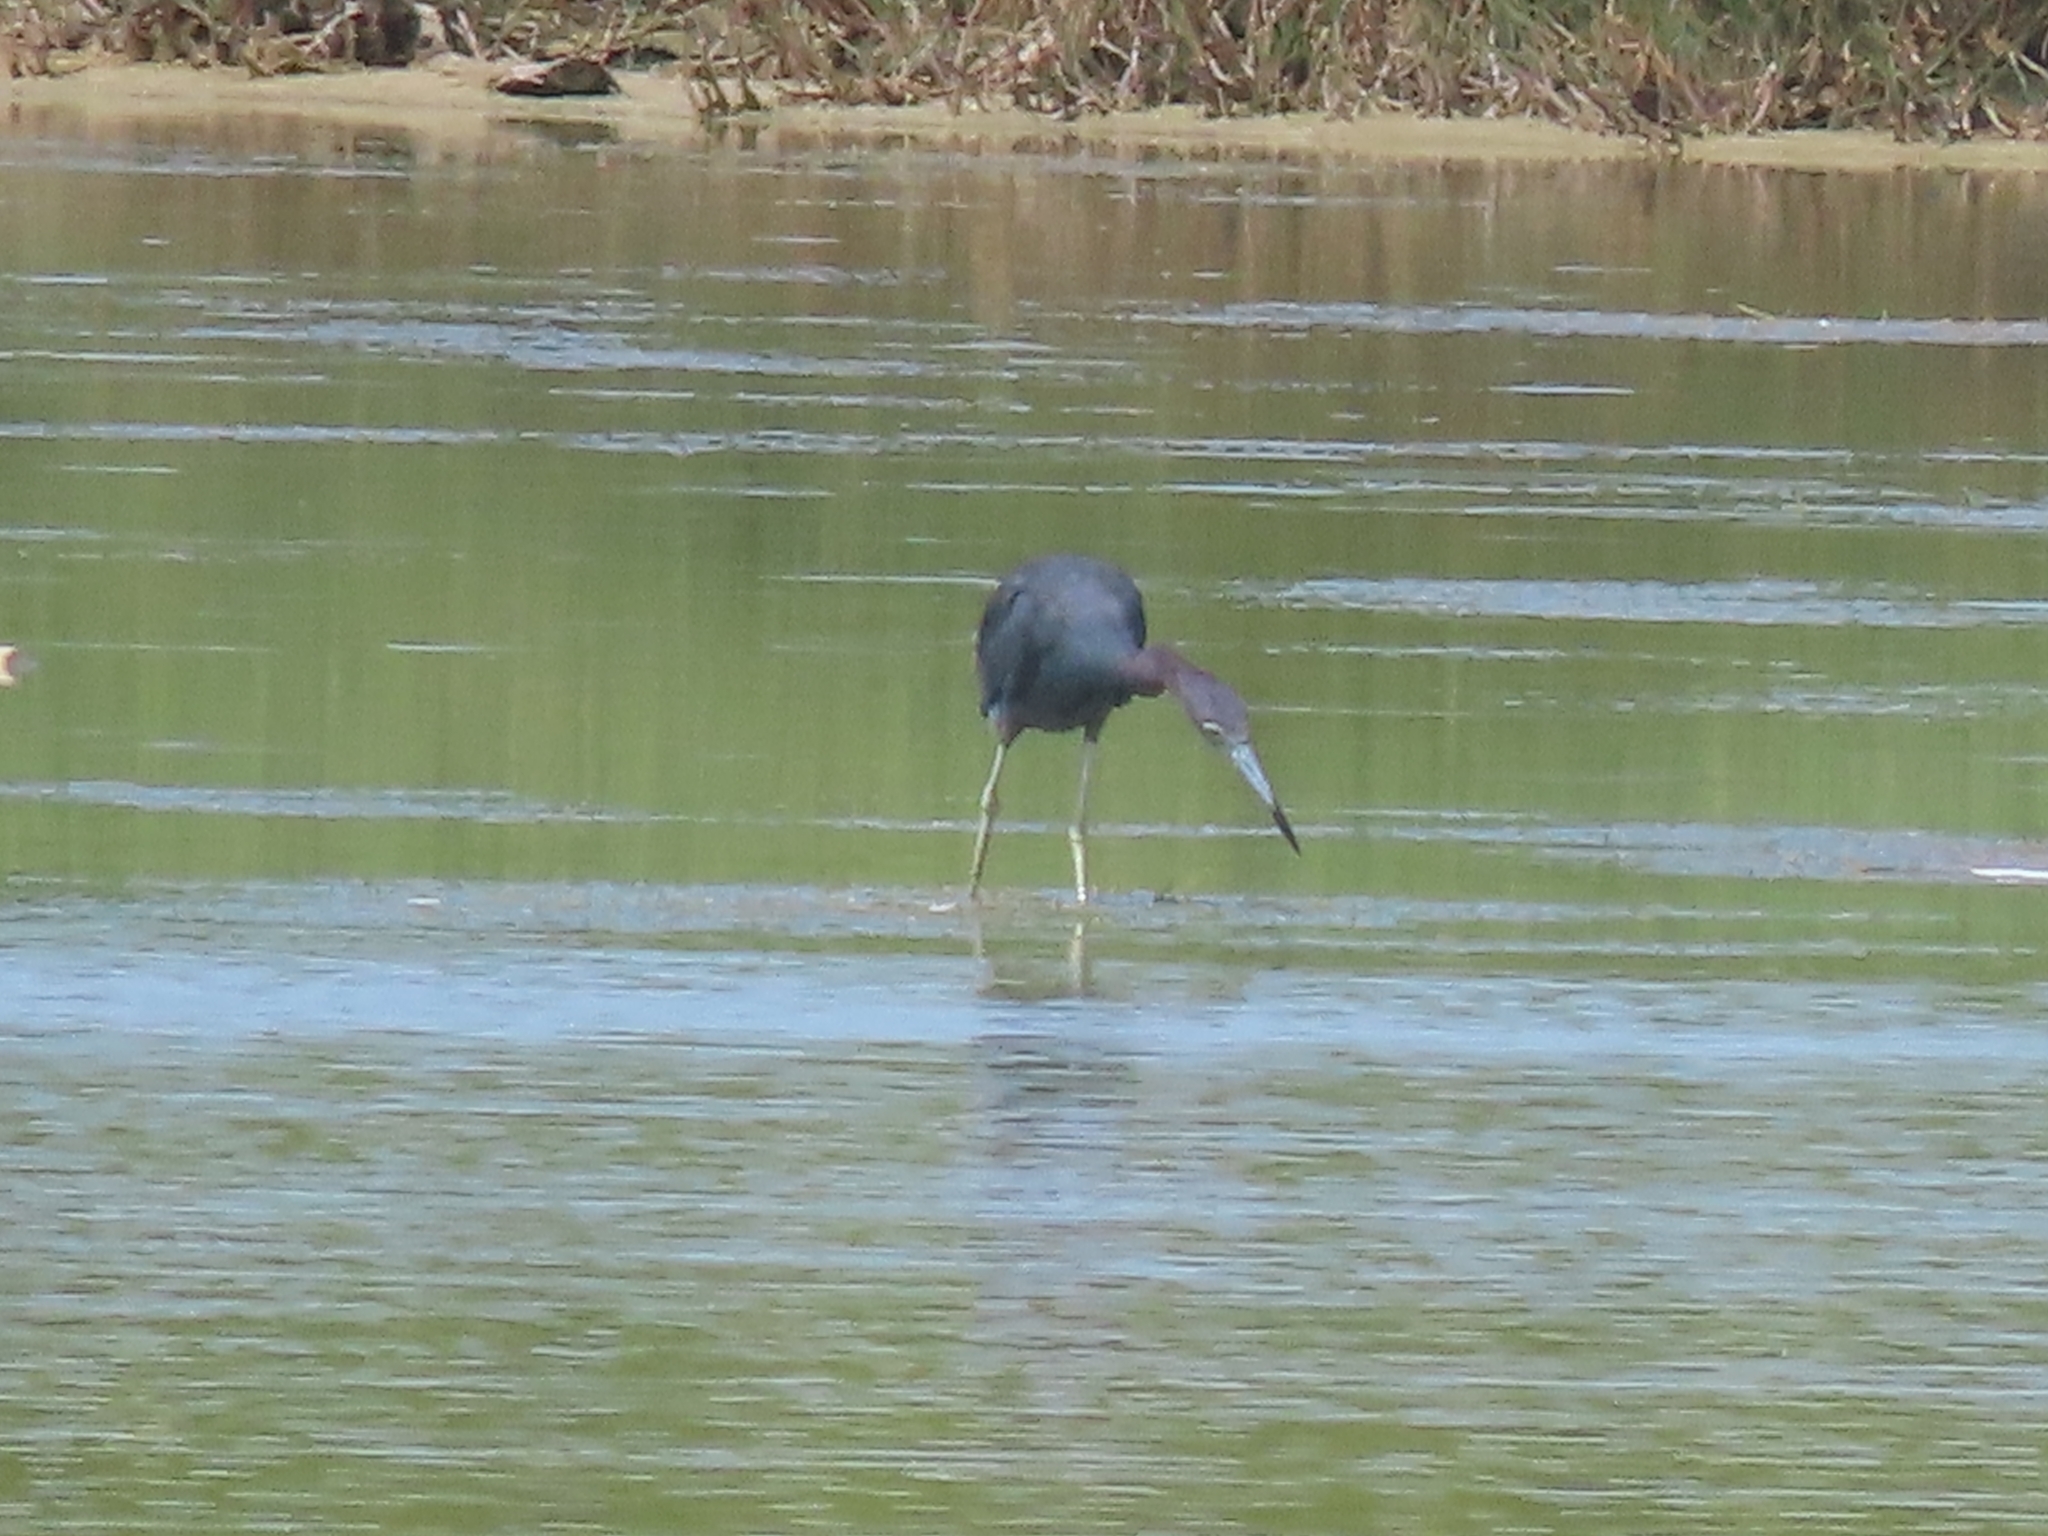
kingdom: Animalia
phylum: Chordata
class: Aves
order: Pelecaniformes
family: Ardeidae
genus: Egretta
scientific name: Egretta caerulea
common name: Little blue heron
